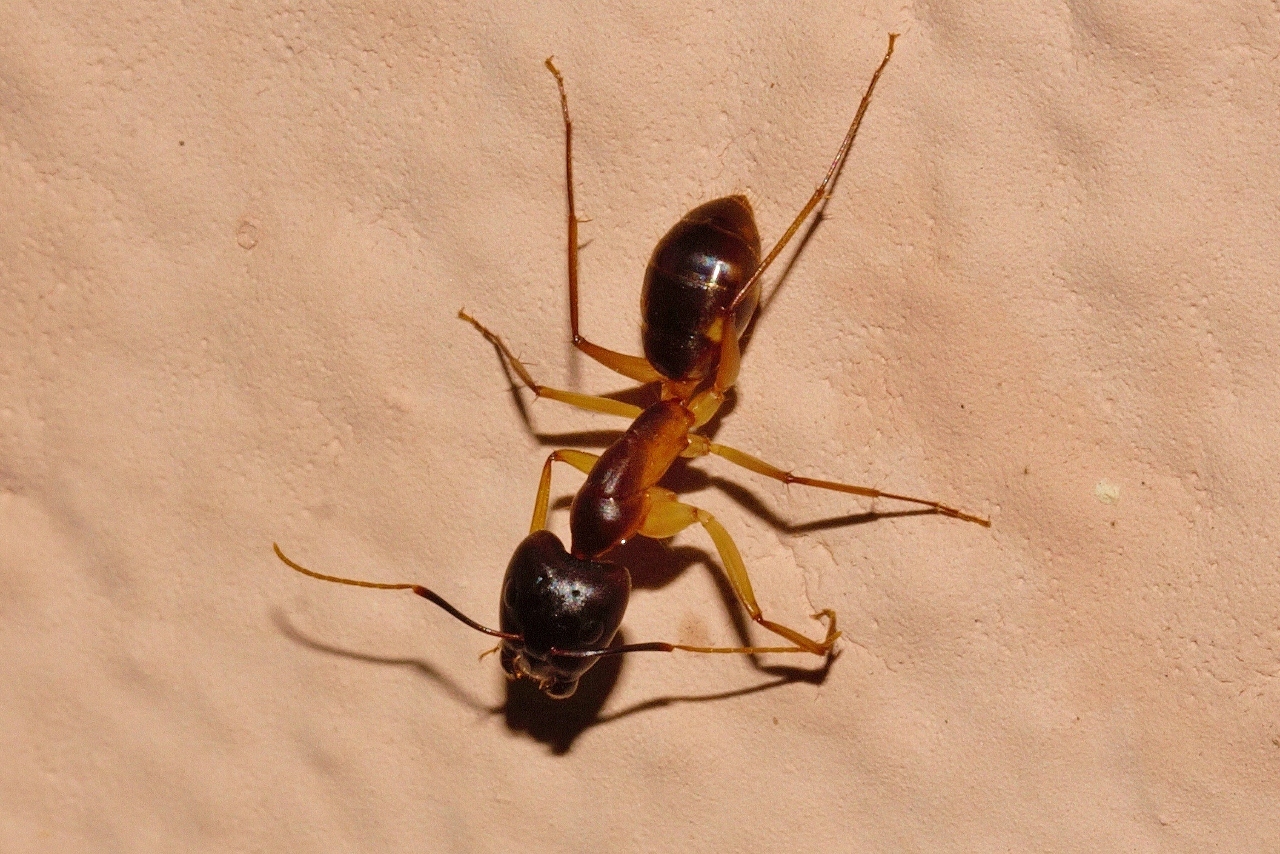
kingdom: Animalia
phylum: Arthropoda
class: Insecta
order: Hymenoptera
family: Formicidae
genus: Camponotus
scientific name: Camponotus maculatus
